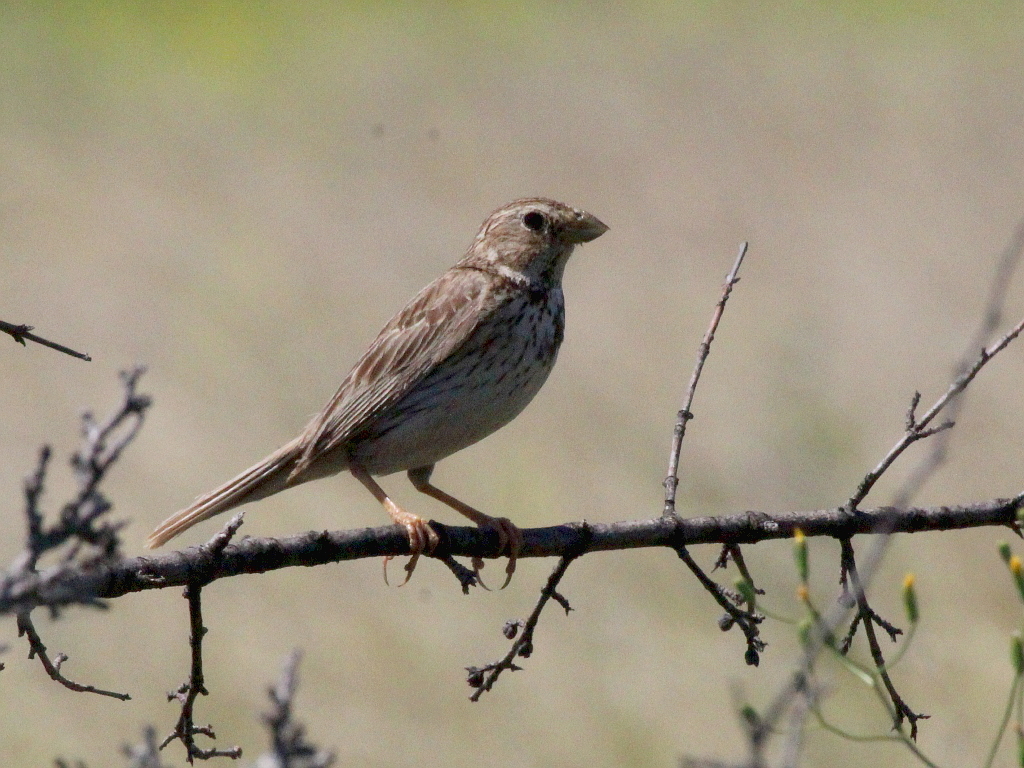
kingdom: Animalia
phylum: Chordata
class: Aves
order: Passeriformes
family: Emberizidae
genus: Emberiza
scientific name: Emberiza calandra
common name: Corn bunting
